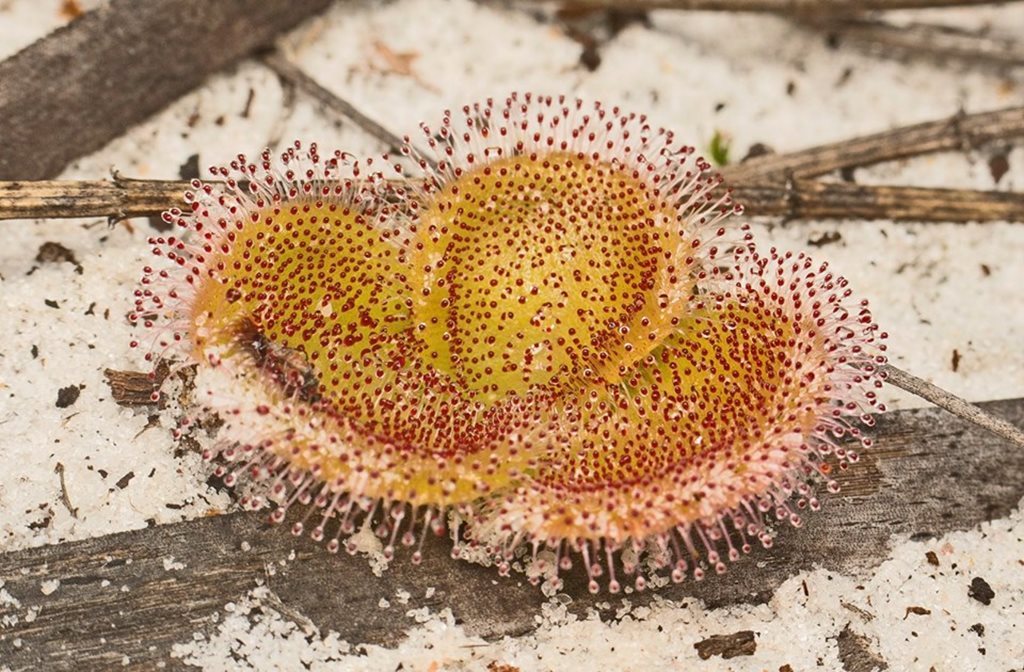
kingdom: Plantae
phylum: Tracheophyta
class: Magnoliopsida
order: Caryophyllales
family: Droseraceae
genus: Drosera
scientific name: Drosera erythrorhiza
